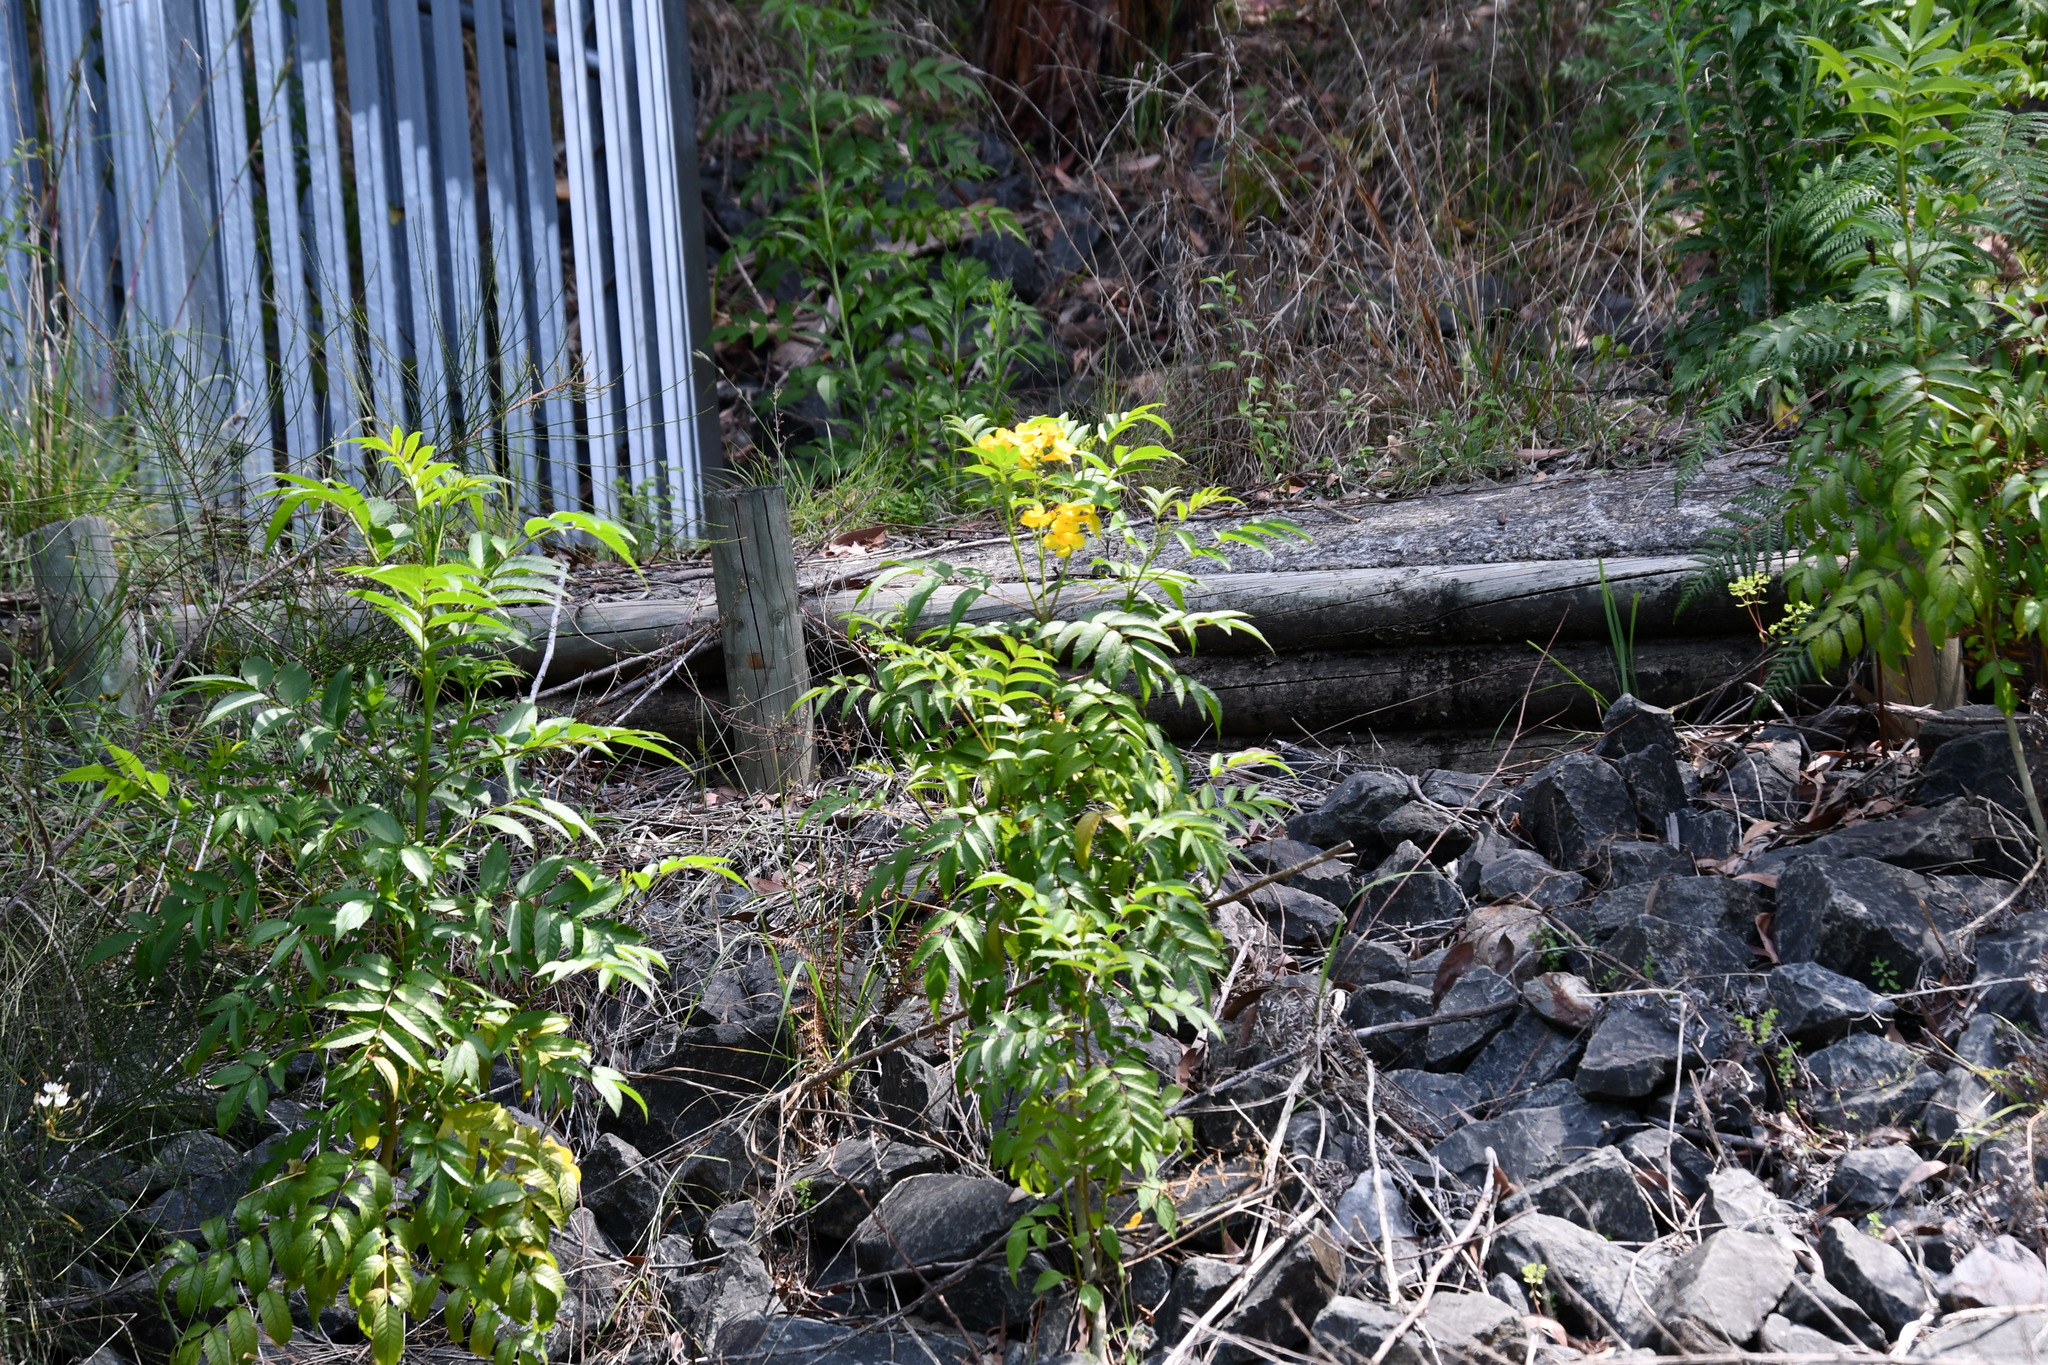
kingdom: Plantae
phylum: Tracheophyta
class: Magnoliopsida
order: Lamiales
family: Bignoniaceae
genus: Tecoma
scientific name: Tecoma stans
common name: Yellow trumpetbush
